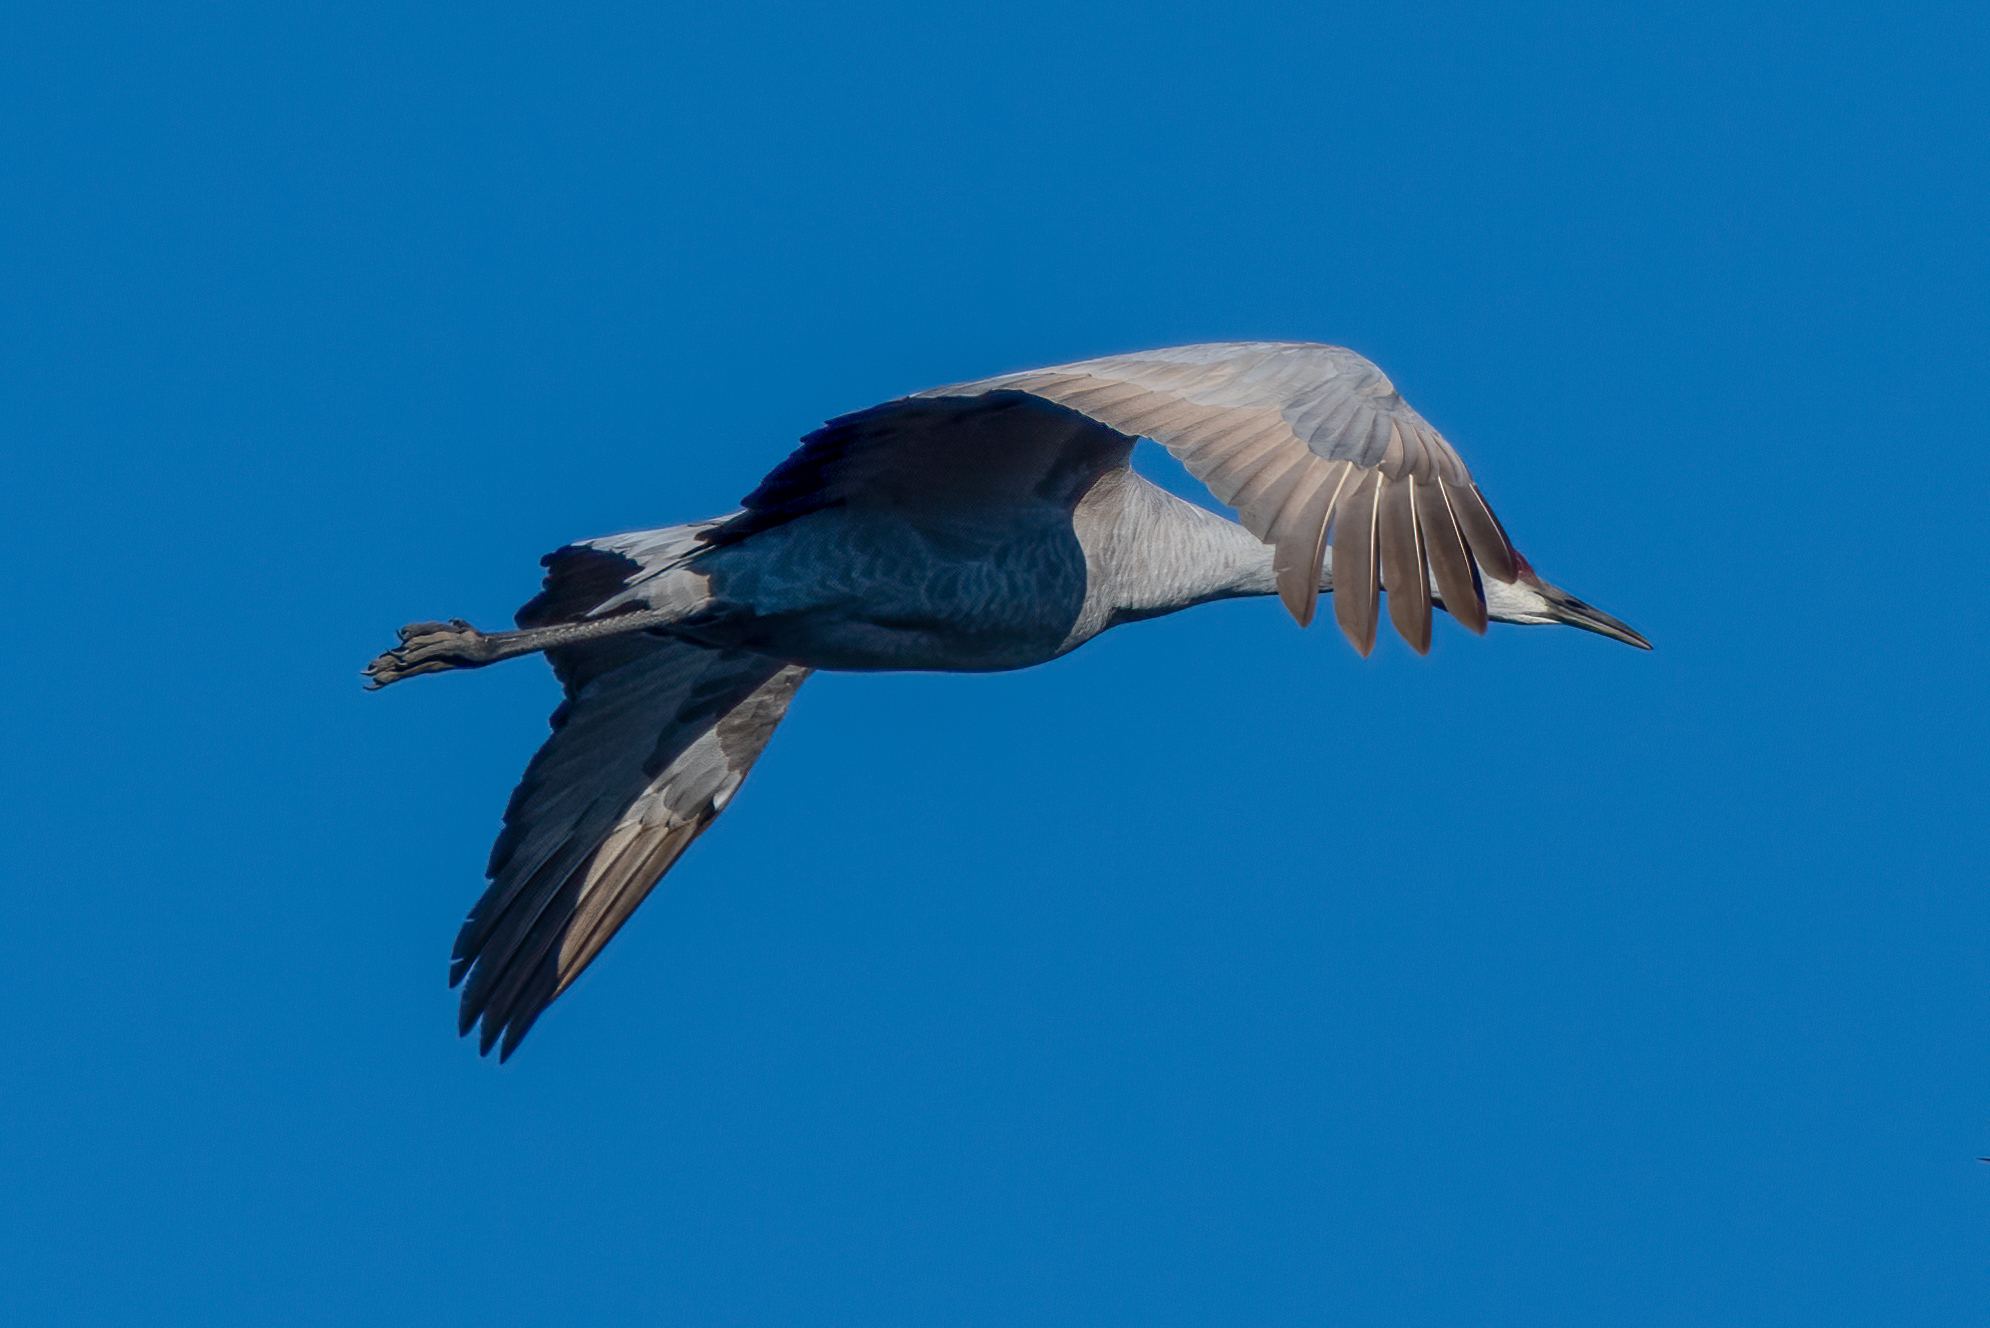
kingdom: Animalia
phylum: Chordata
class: Aves
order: Gruiformes
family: Gruidae
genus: Grus
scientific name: Grus canadensis
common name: Sandhill crane
